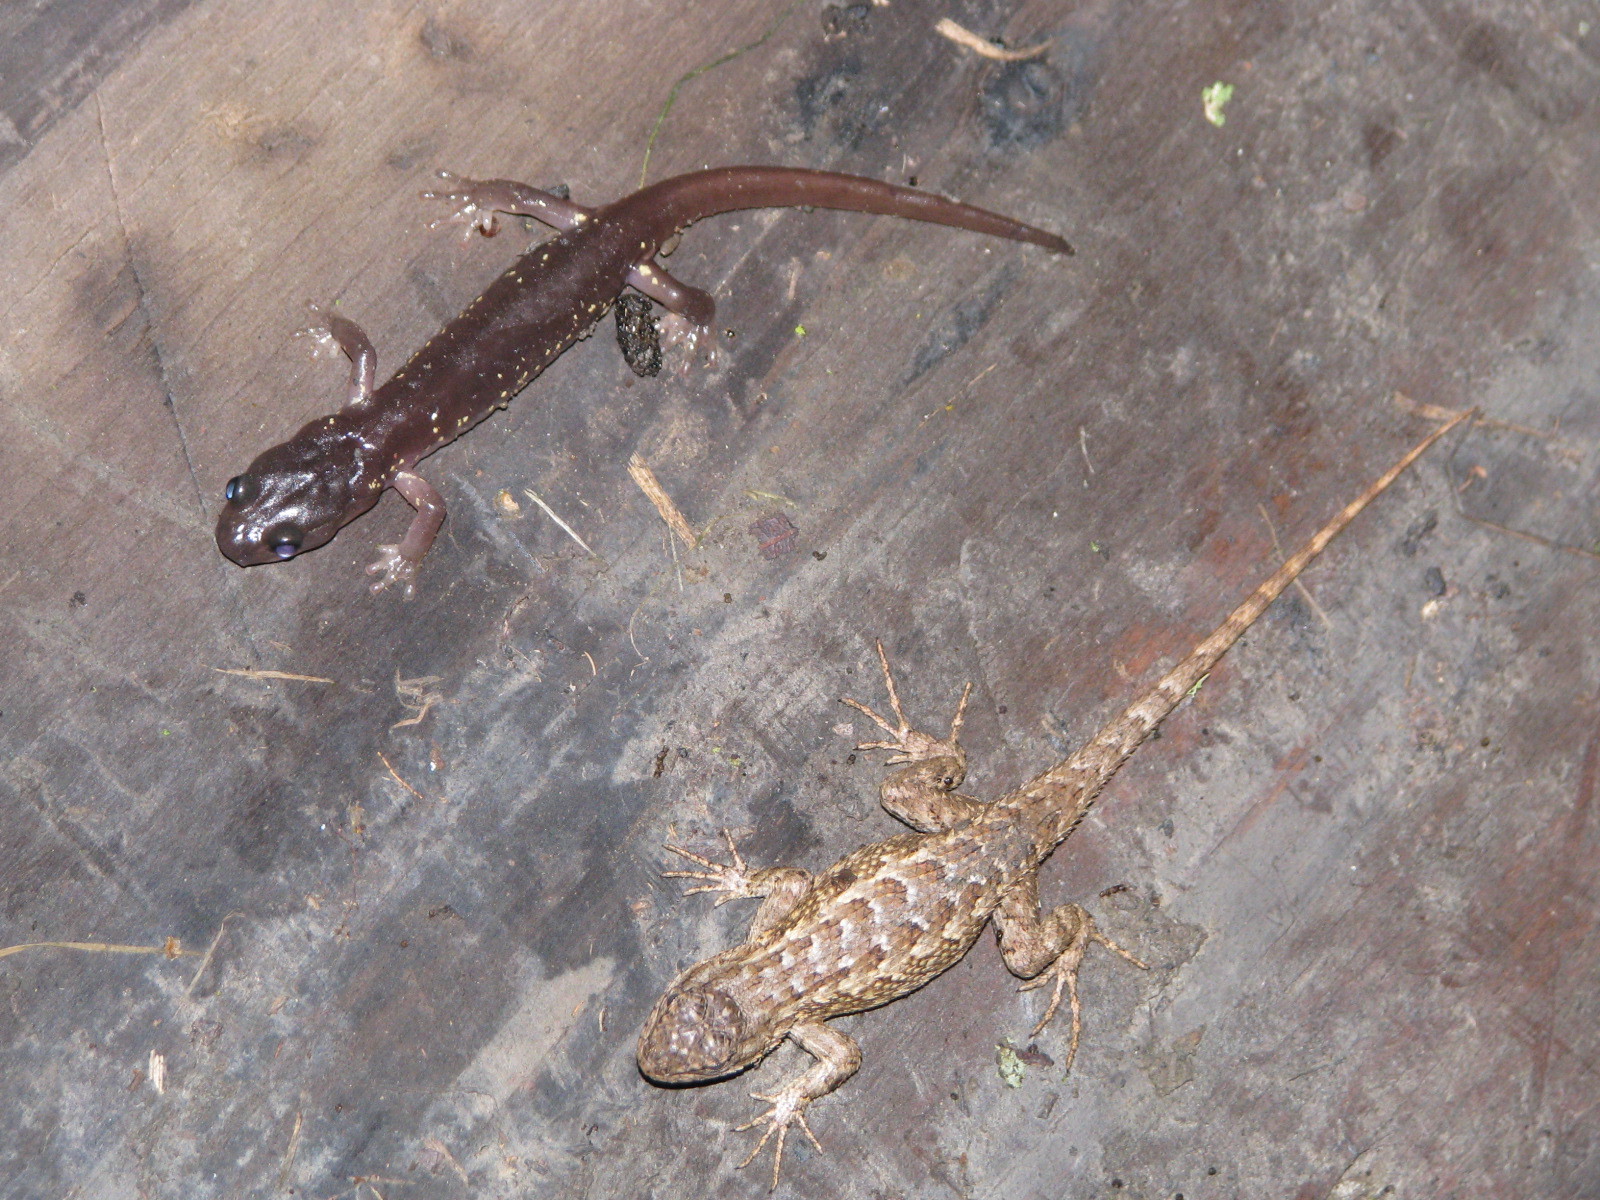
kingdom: Animalia
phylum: Chordata
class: Squamata
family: Phrynosomatidae
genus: Sceloporus
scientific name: Sceloporus occidentalis
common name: Western fence lizard
